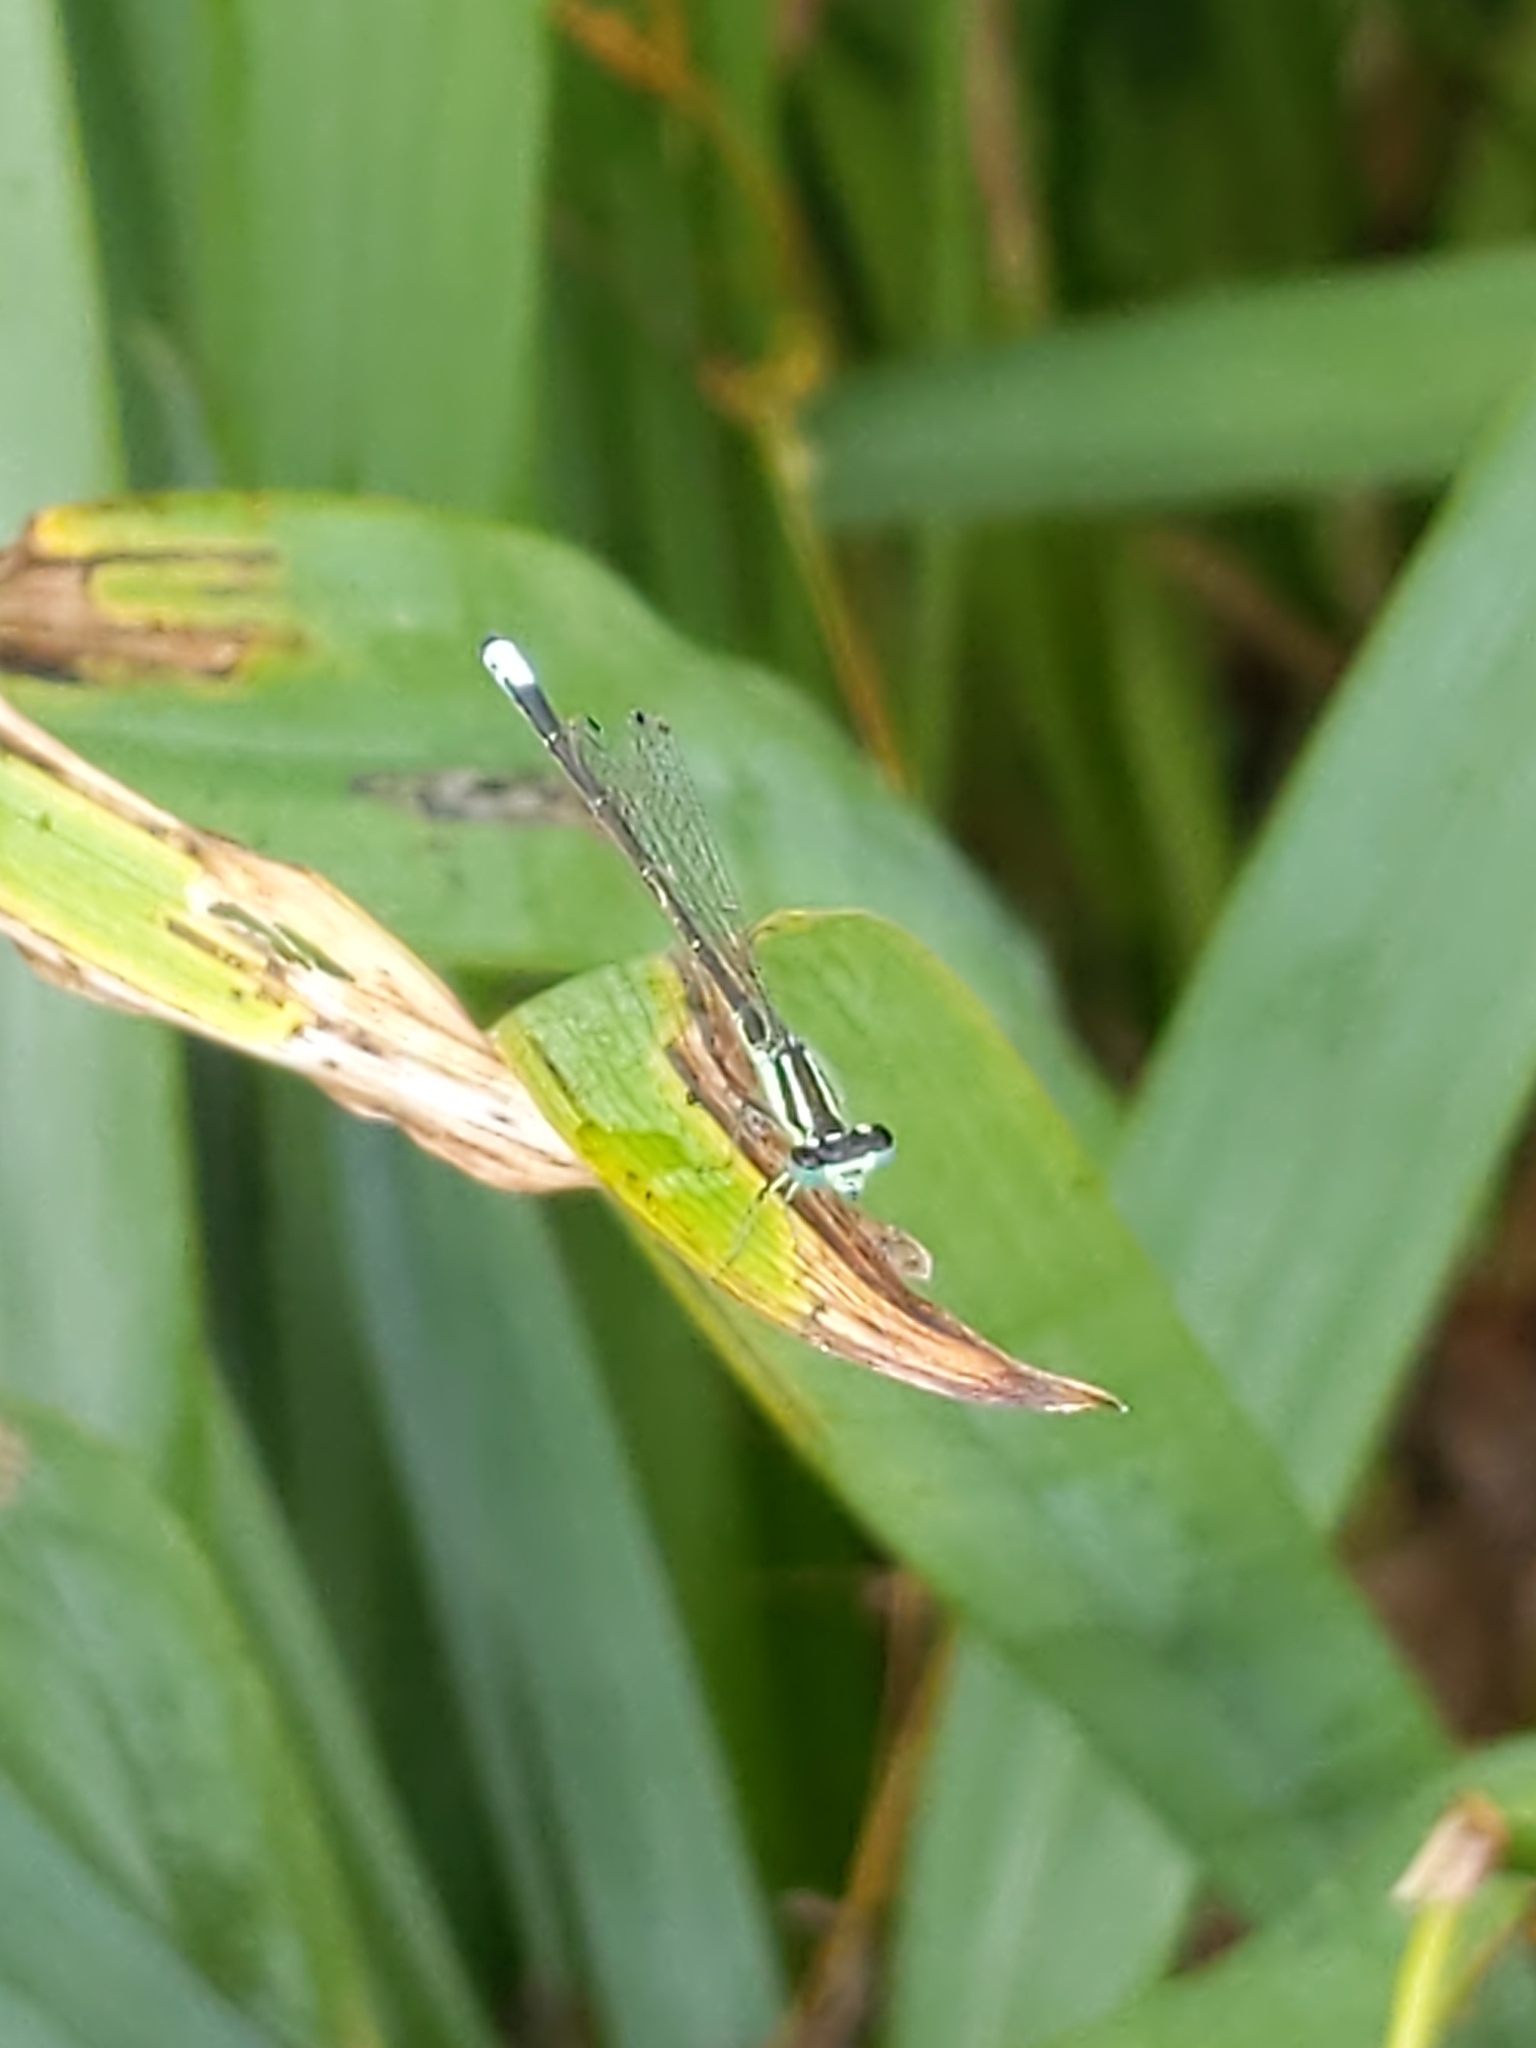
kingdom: Animalia
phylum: Arthropoda
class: Insecta
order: Odonata
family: Coenagrionidae
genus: Ischnura
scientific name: Ischnura verticalis
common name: Eastern forktail
